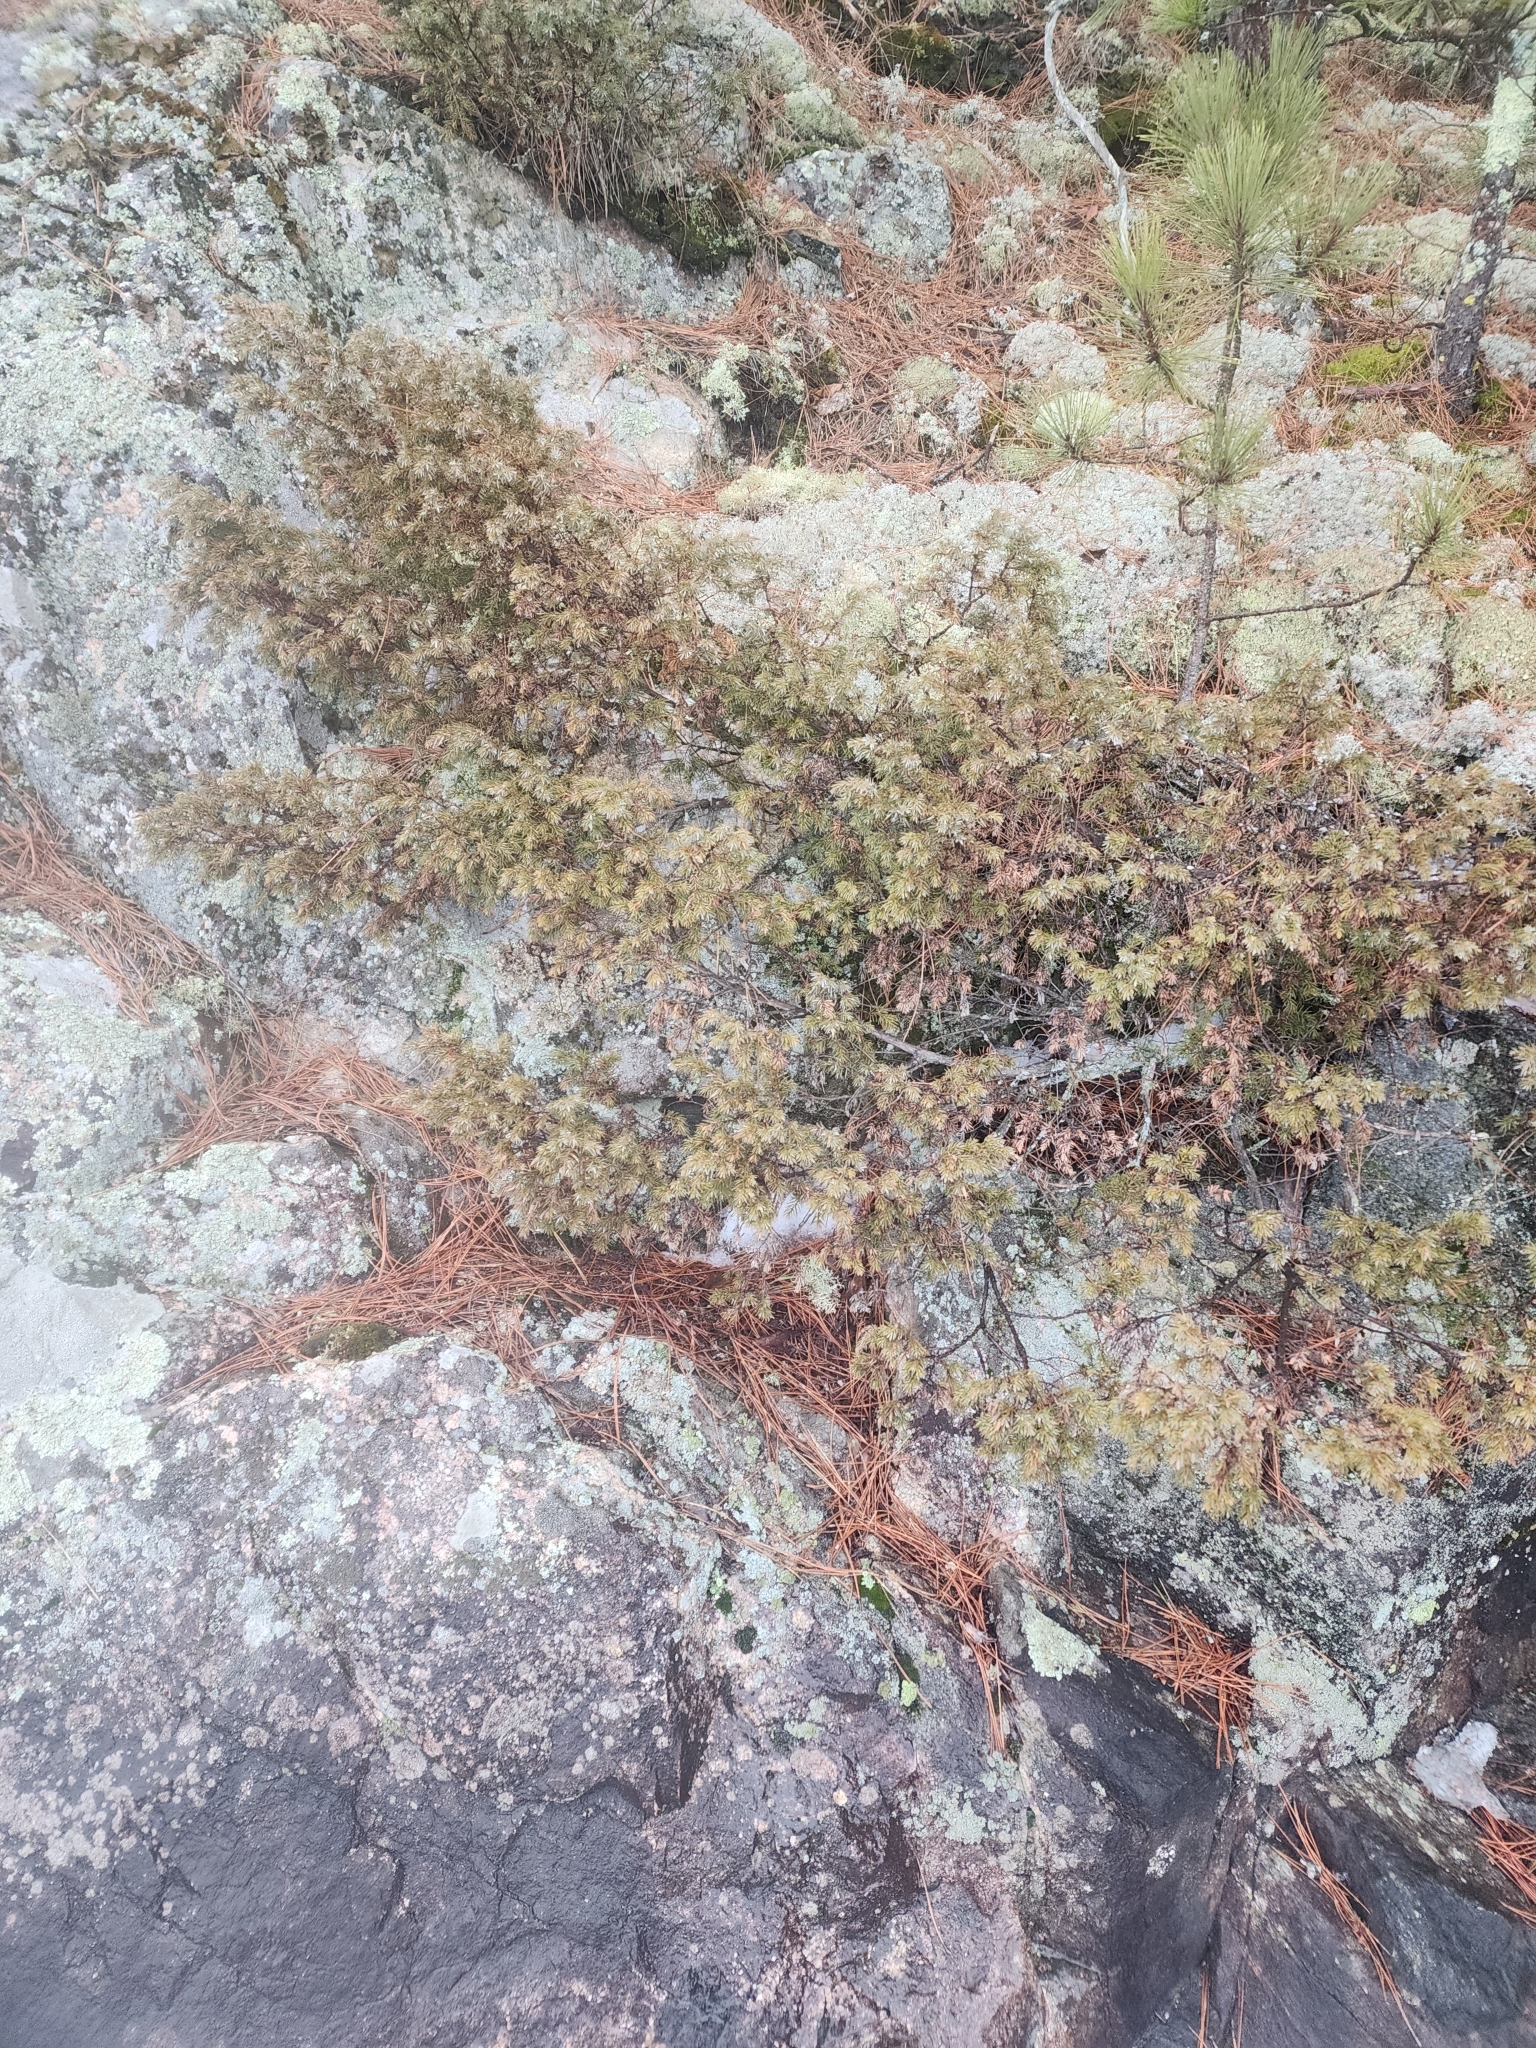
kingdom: Plantae
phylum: Tracheophyta
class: Pinopsida
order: Pinales
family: Cupressaceae
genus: Juniperus
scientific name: Juniperus communis
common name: Common juniper
